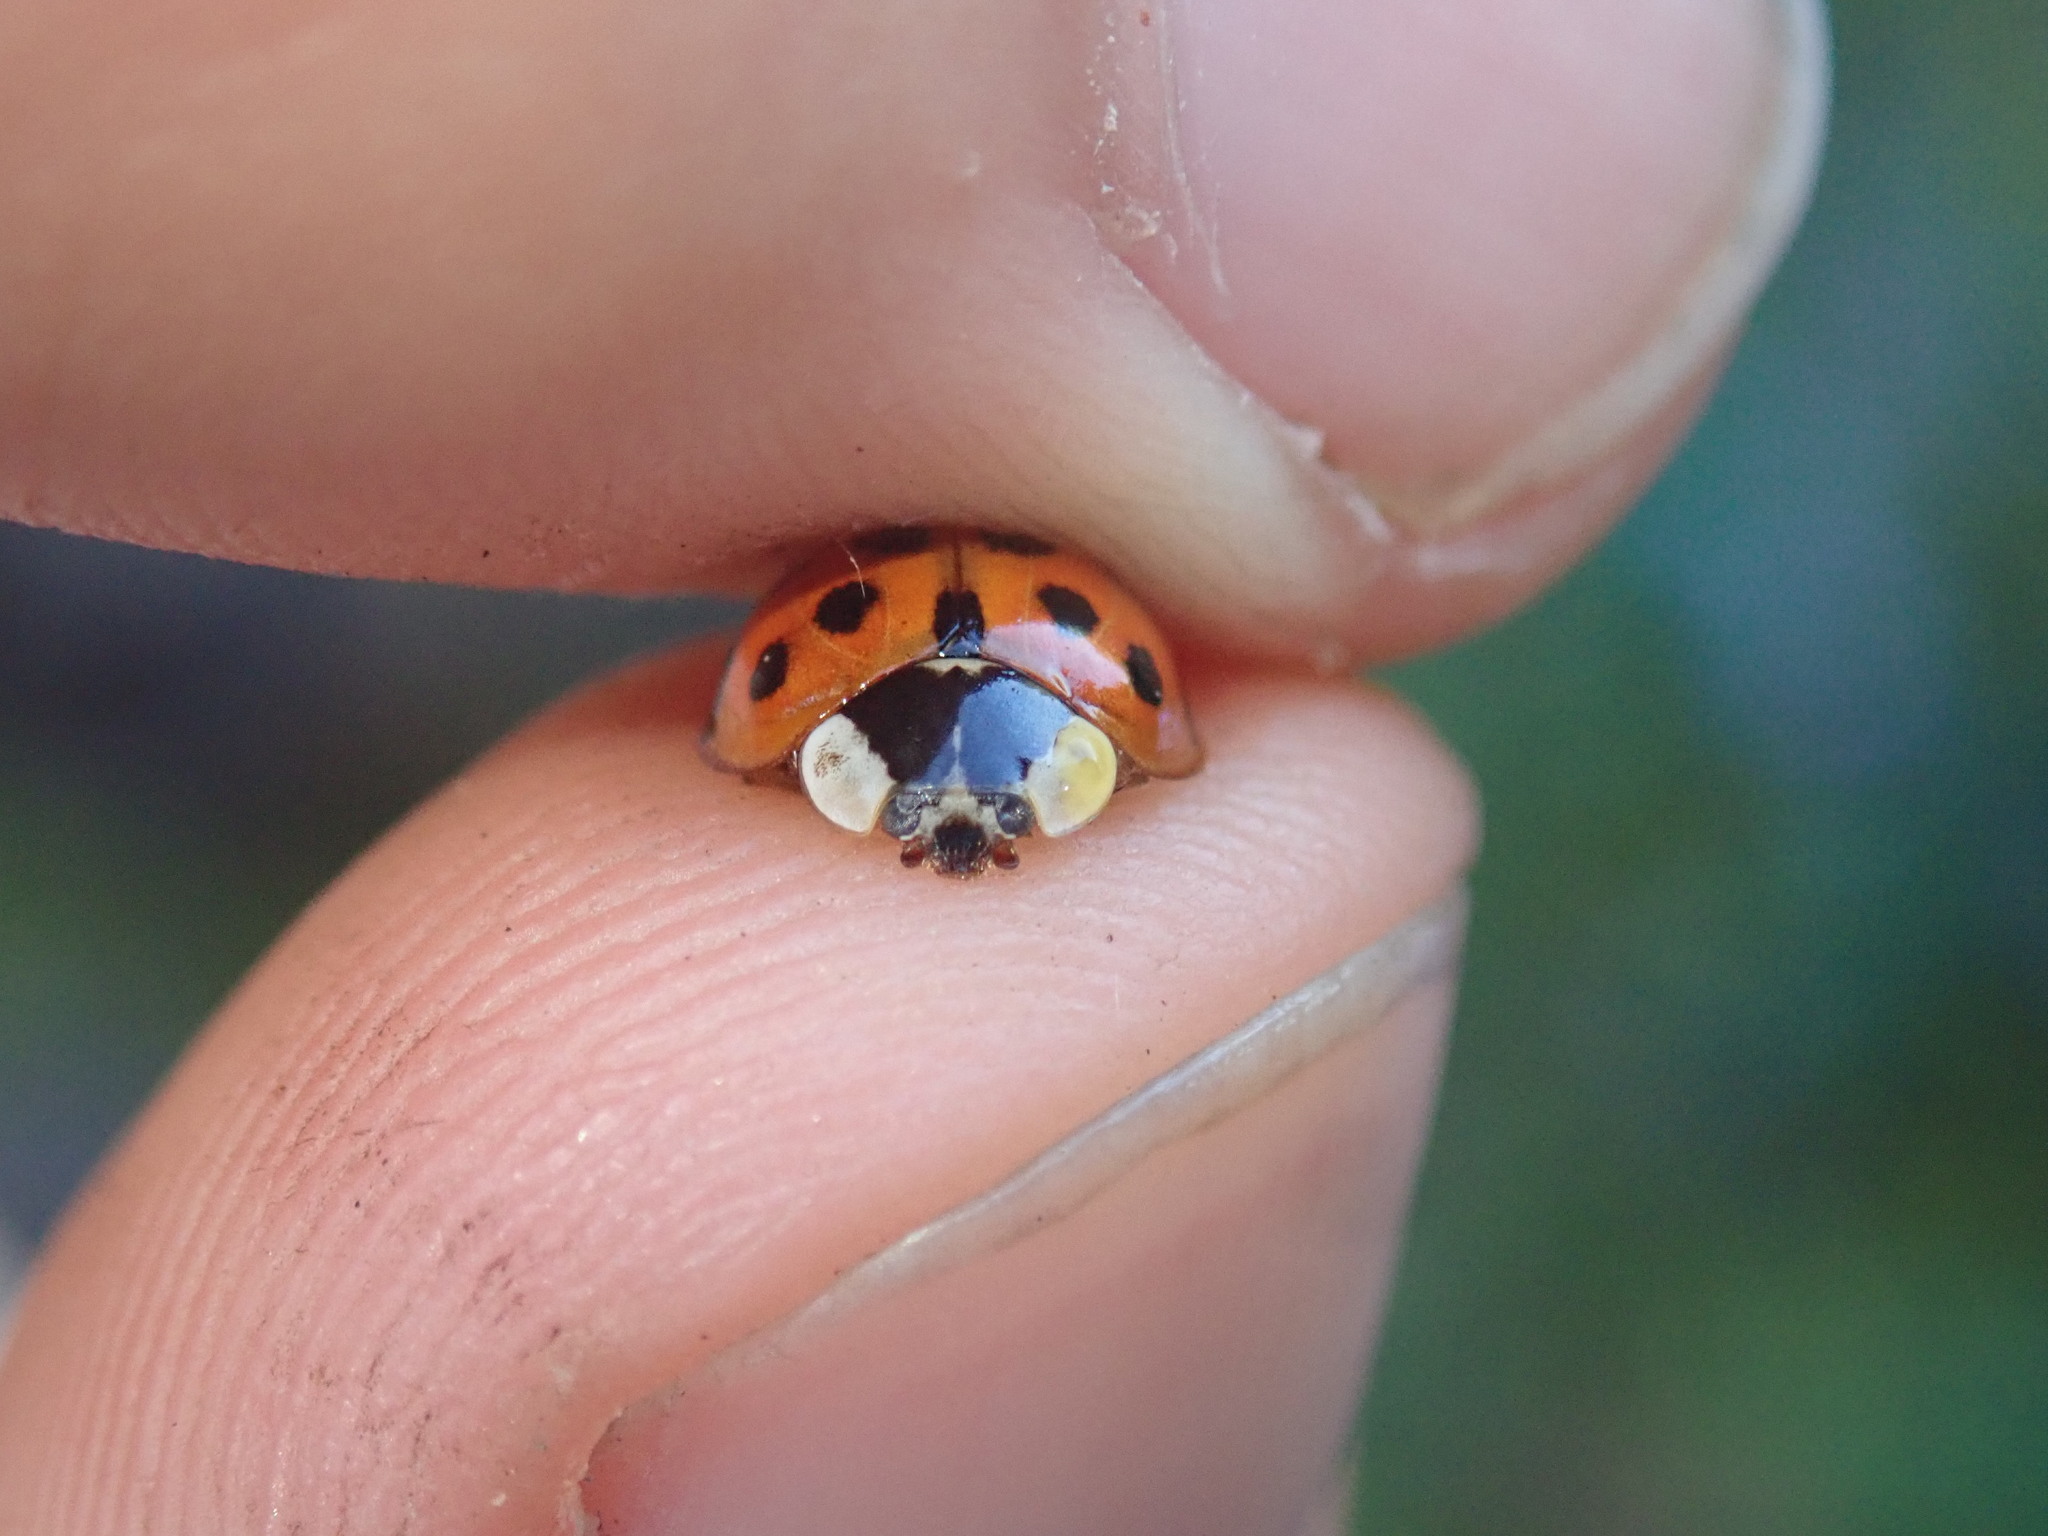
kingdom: Animalia
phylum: Arthropoda
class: Insecta
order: Coleoptera
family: Coccinellidae
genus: Harmonia
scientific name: Harmonia axyridis
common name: Harlequin ladybird
